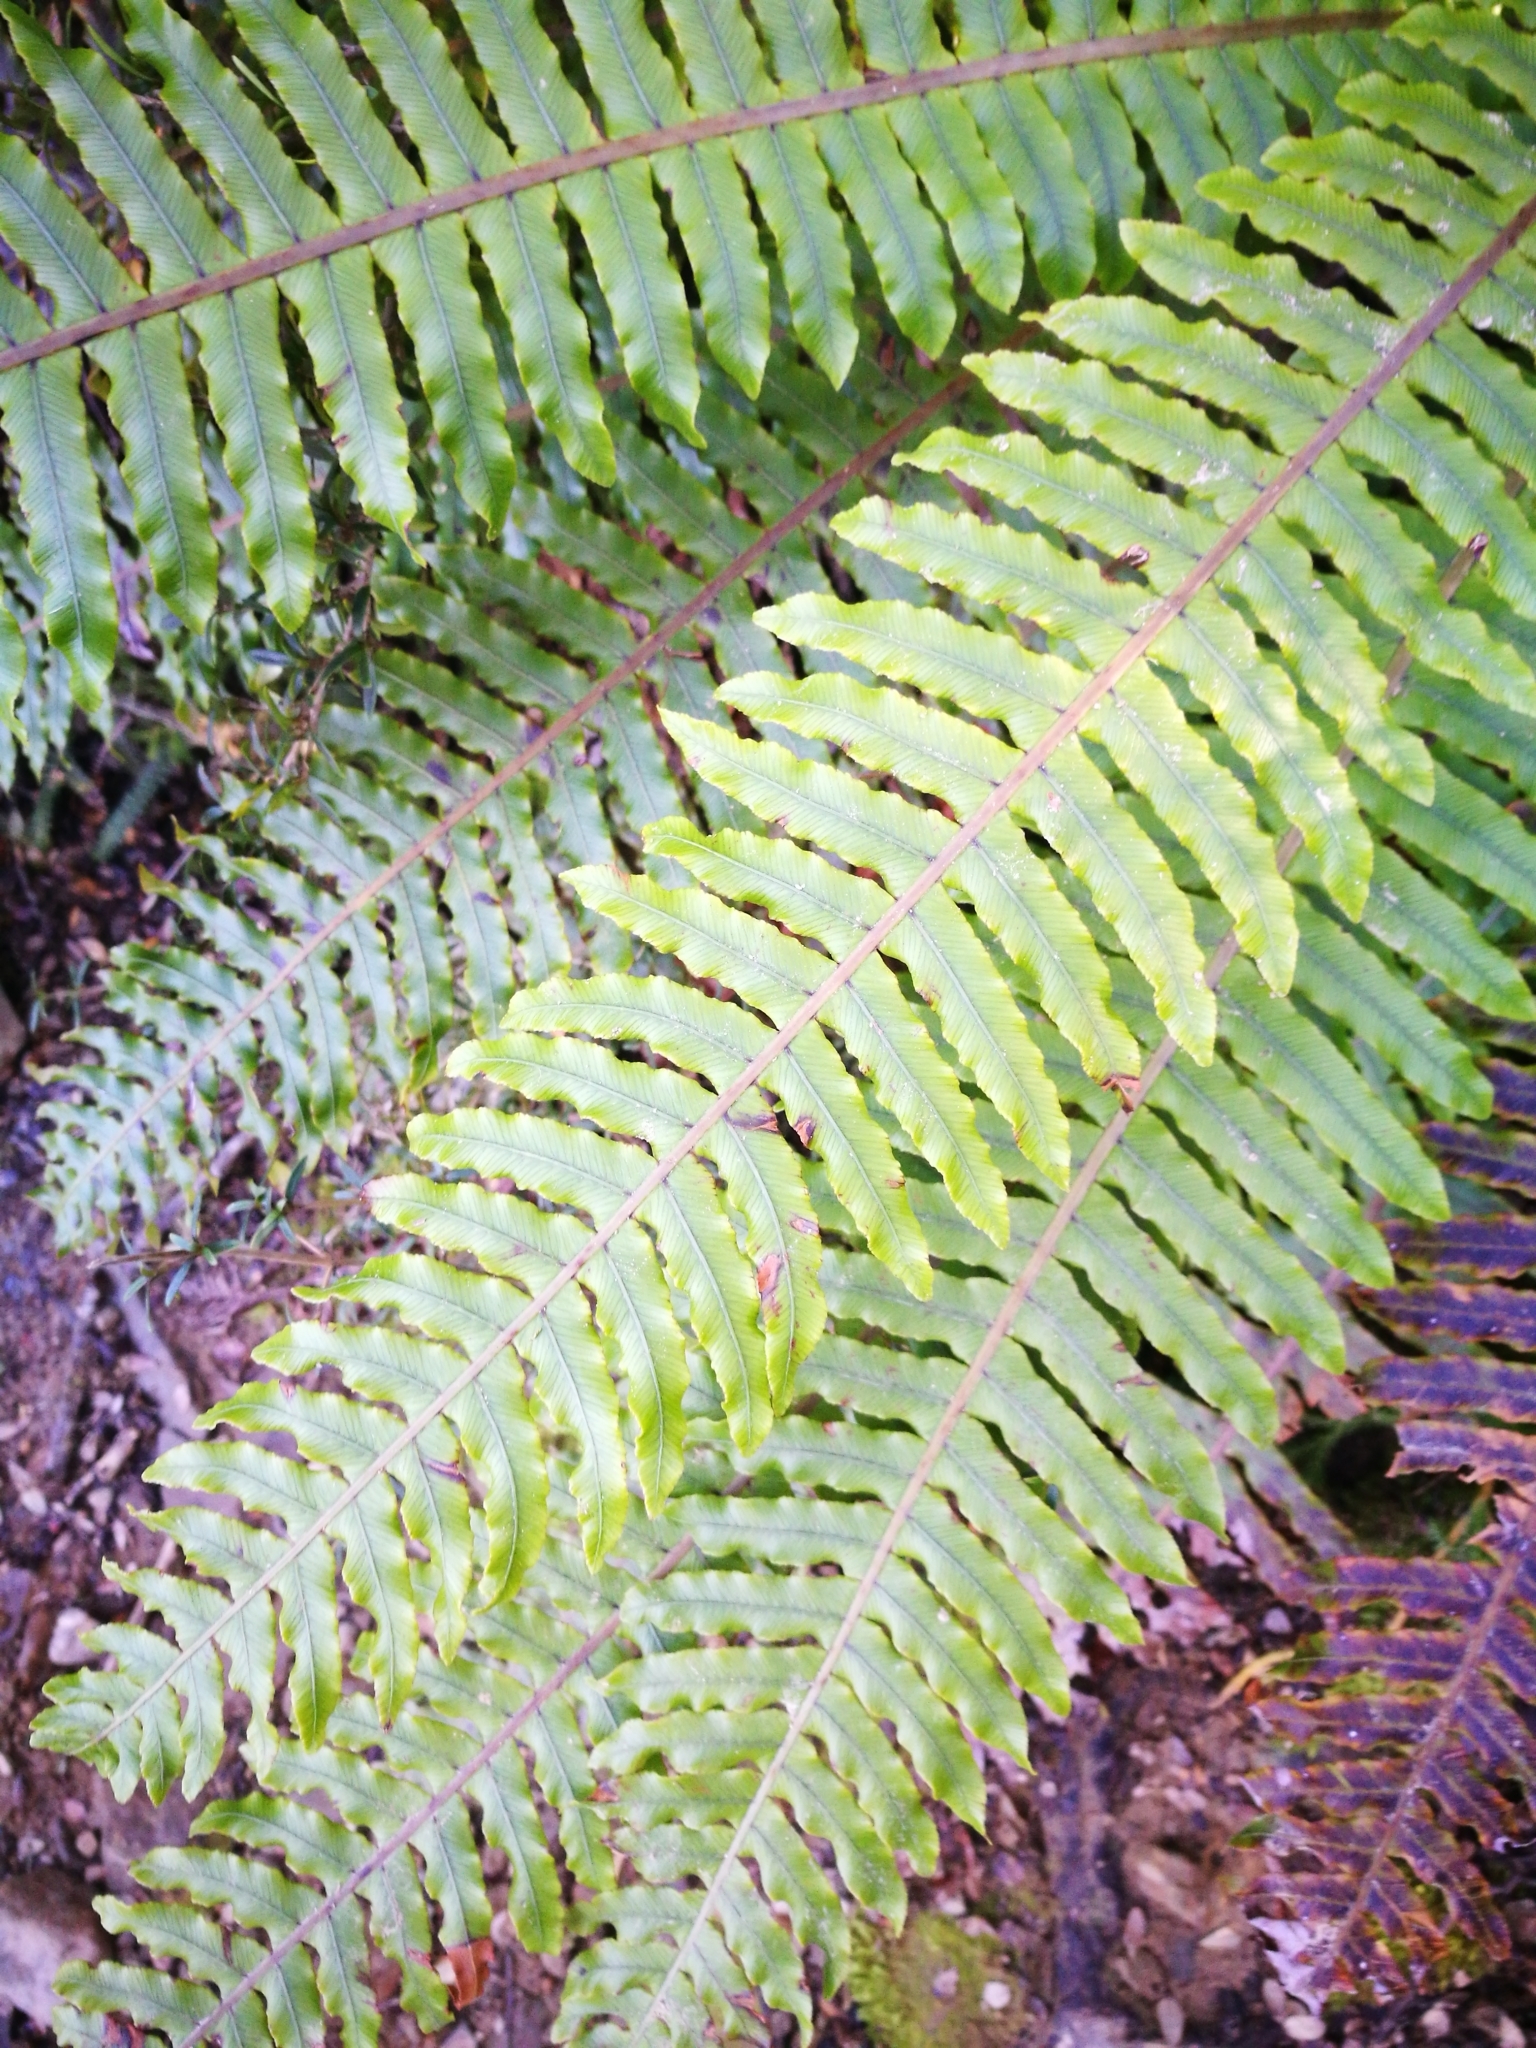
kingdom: Plantae
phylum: Tracheophyta
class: Polypodiopsida
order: Polypodiales
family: Blechnaceae
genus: Lomaria
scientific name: Lomaria discolor
